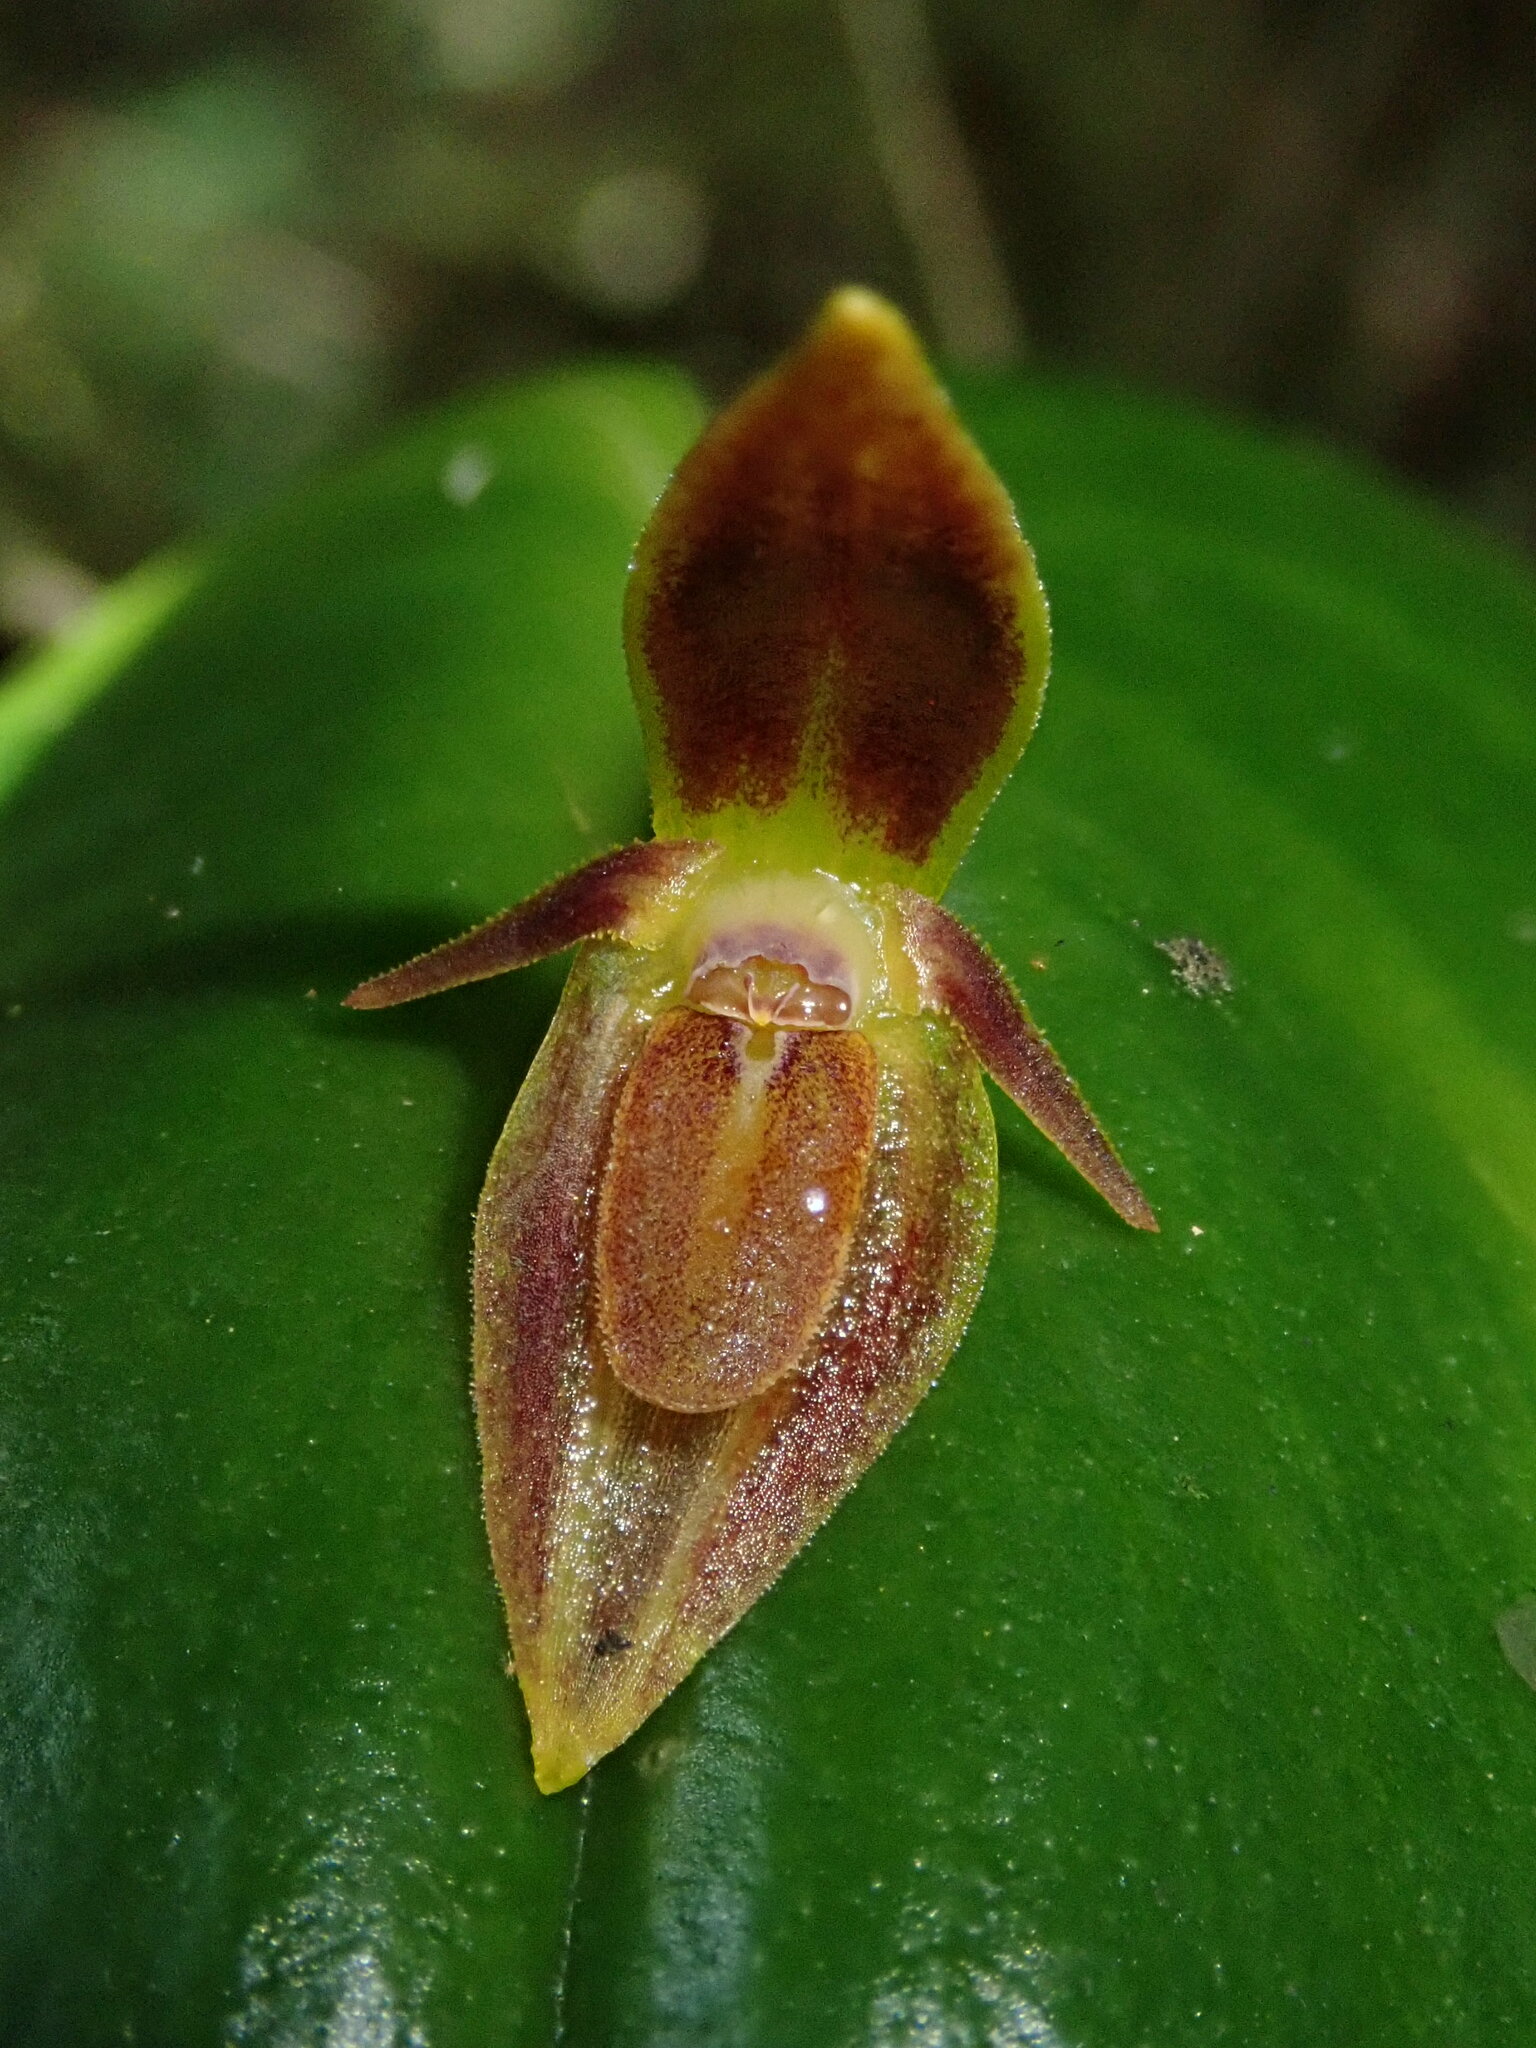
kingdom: Plantae
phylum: Tracheophyta
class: Liliopsida
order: Asparagales
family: Orchidaceae
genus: Pleurothallis
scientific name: Pleurothallis coriacardia
